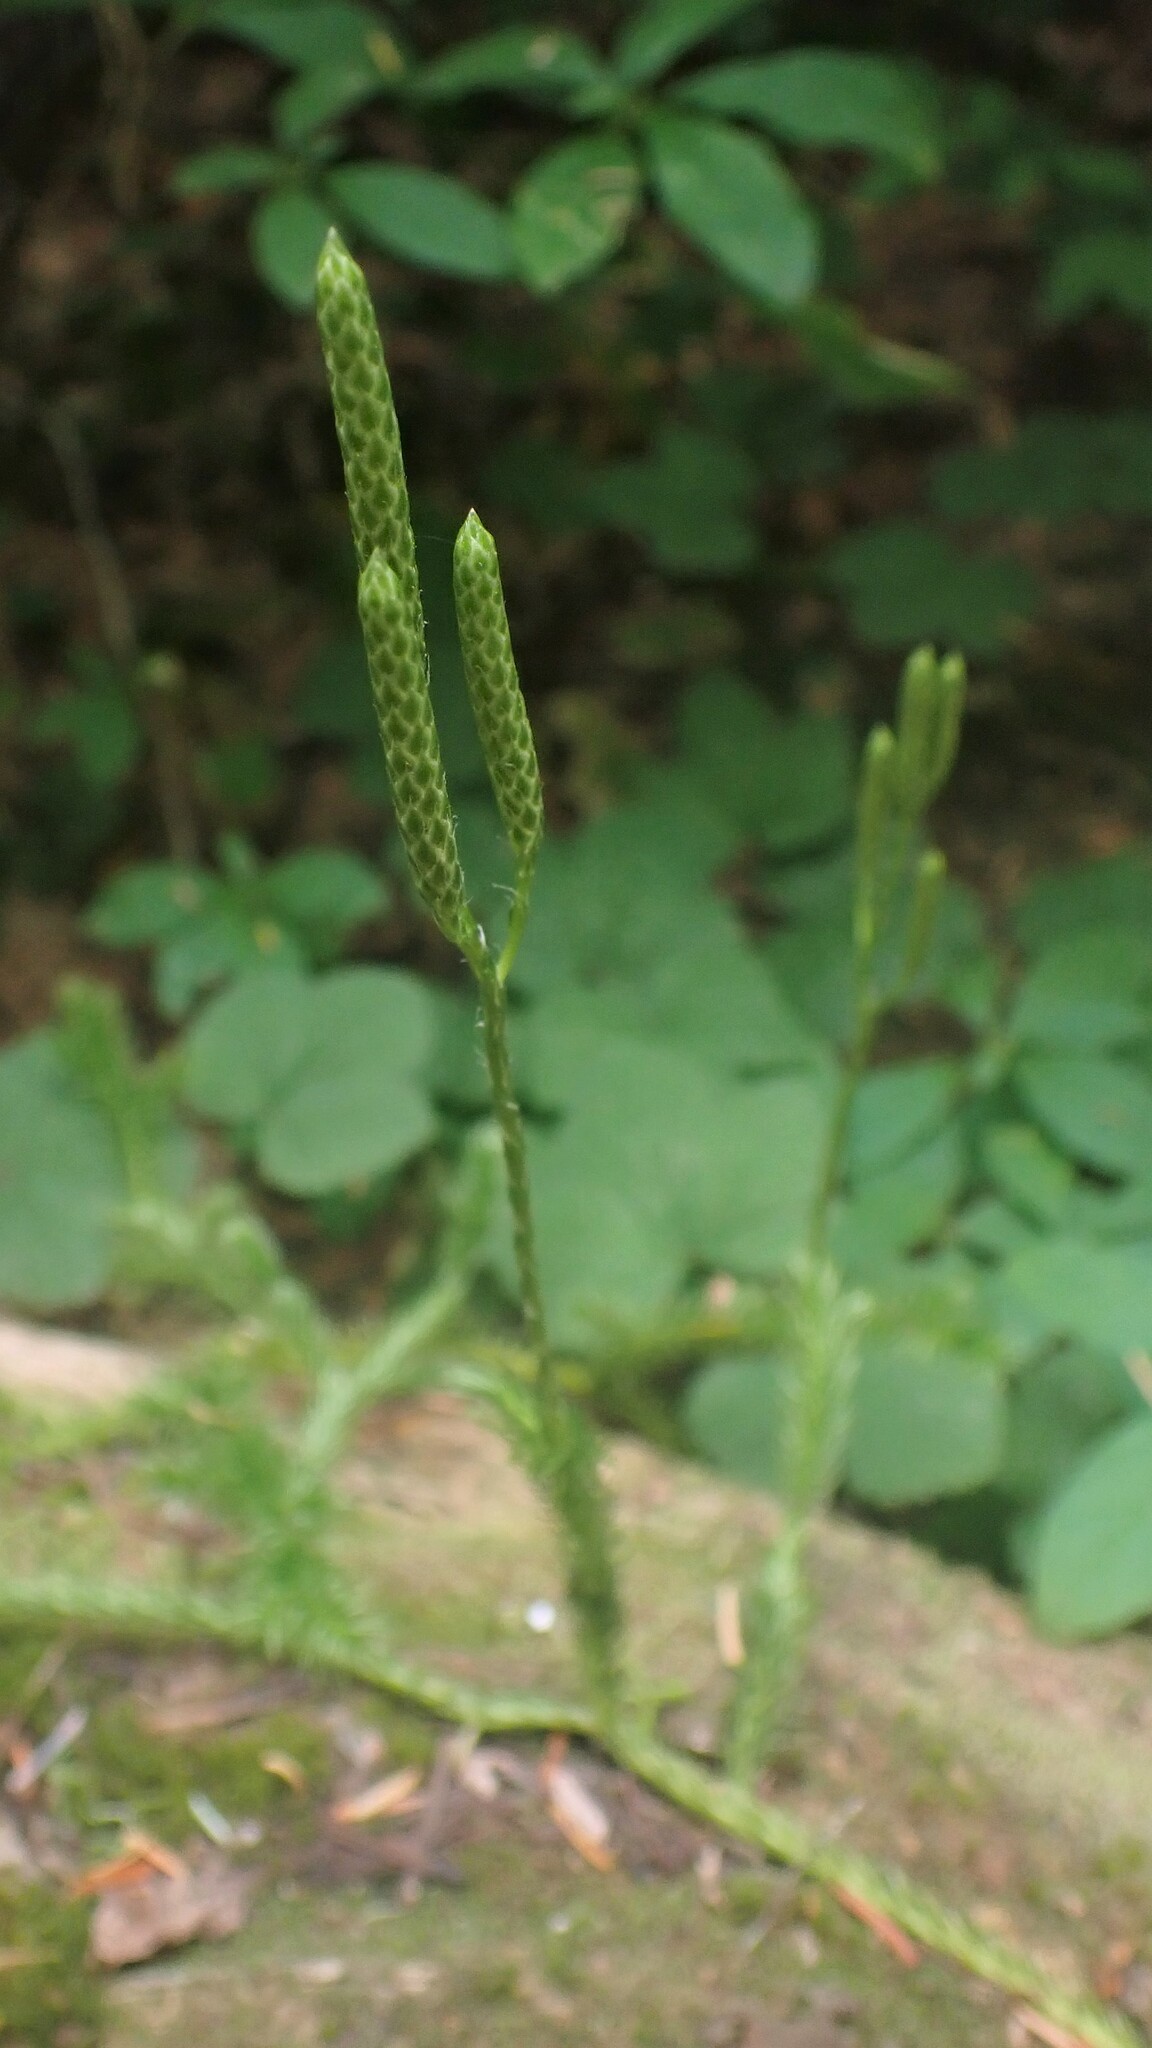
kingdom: Plantae
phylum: Tracheophyta
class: Lycopodiopsida
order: Lycopodiales
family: Lycopodiaceae
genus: Lycopodium
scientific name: Lycopodium clavatum
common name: Stag's-horn clubmoss
